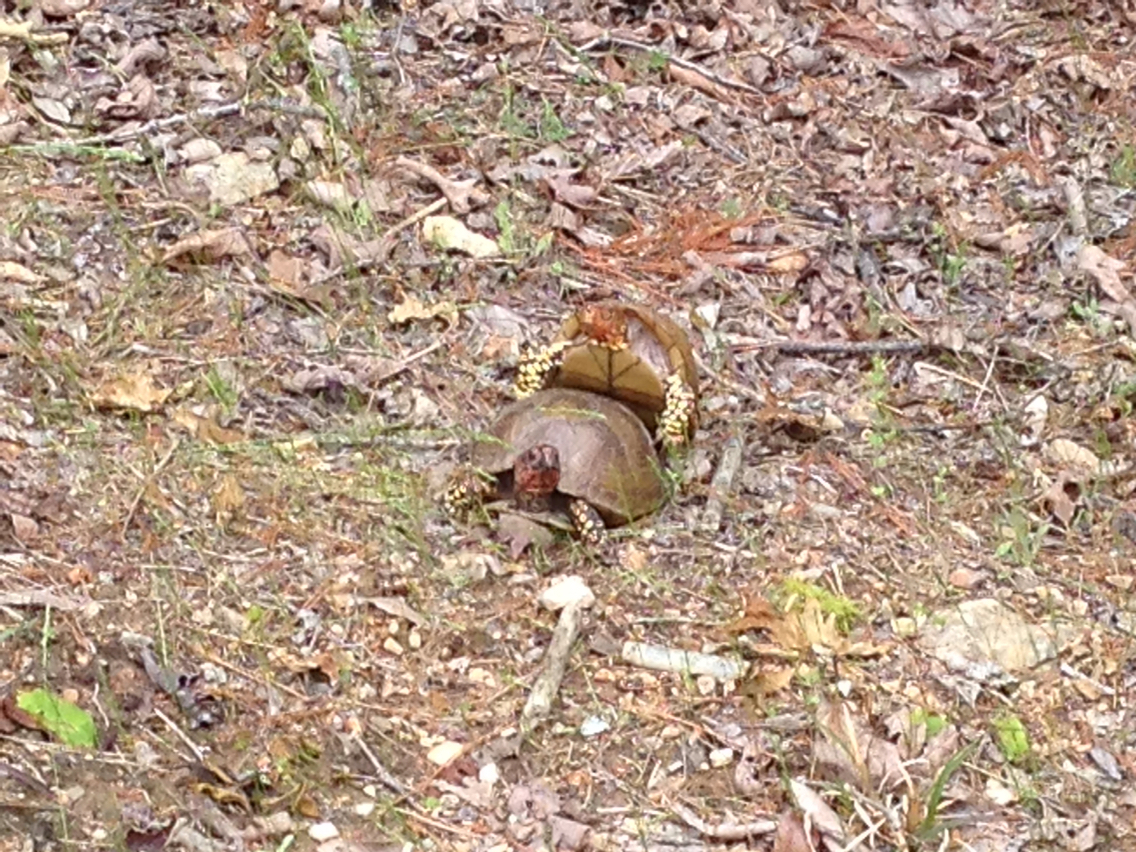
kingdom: Animalia
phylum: Chordata
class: Testudines
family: Emydidae
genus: Terrapene
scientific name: Terrapene carolina
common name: Common box turtle
